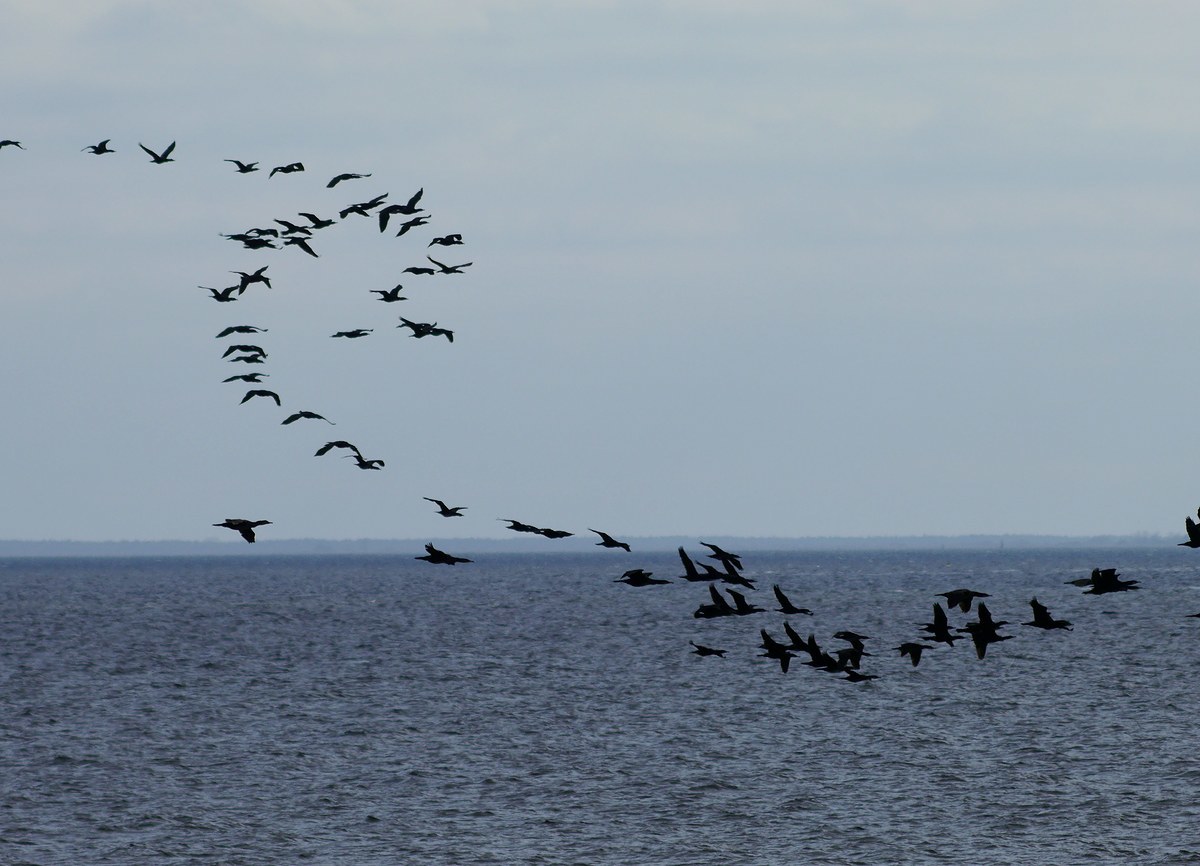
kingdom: Animalia
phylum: Chordata
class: Aves
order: Suliformes
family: Phalacrocoracidae
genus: Phalacrocorax
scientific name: Phalacrocorax carbo
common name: Great cormorant
